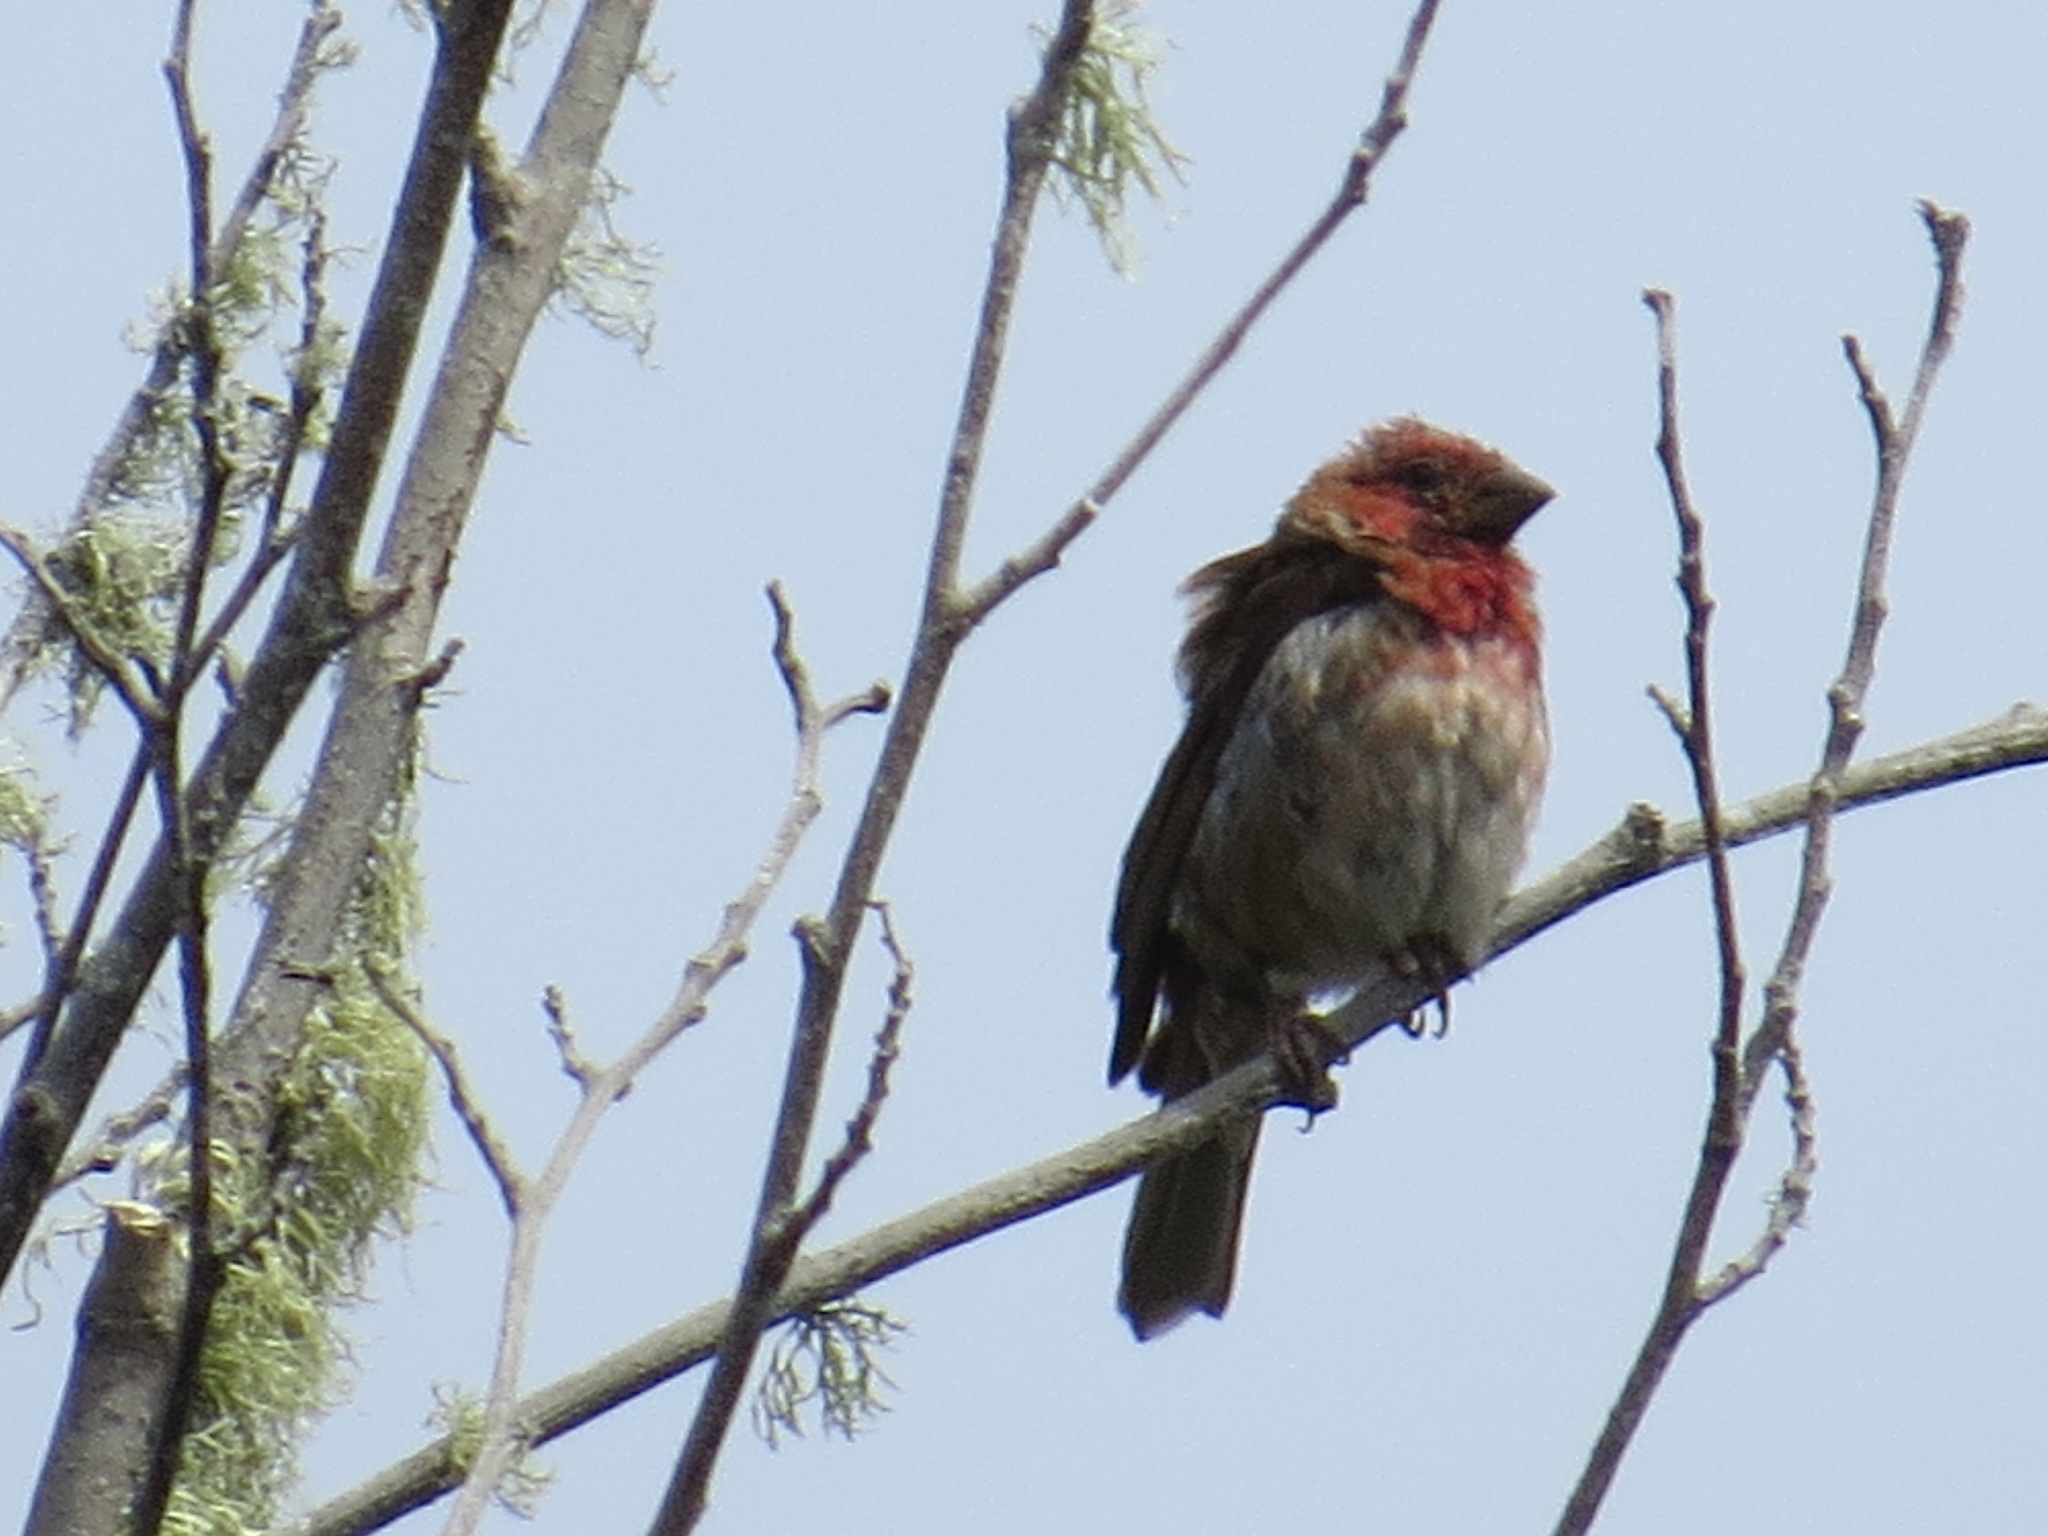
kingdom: Animalia
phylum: Chordata
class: Aves
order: Passeriformes
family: Fringillidae
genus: Haemorhous
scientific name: Haemorhous purpureus
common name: Purple finch
